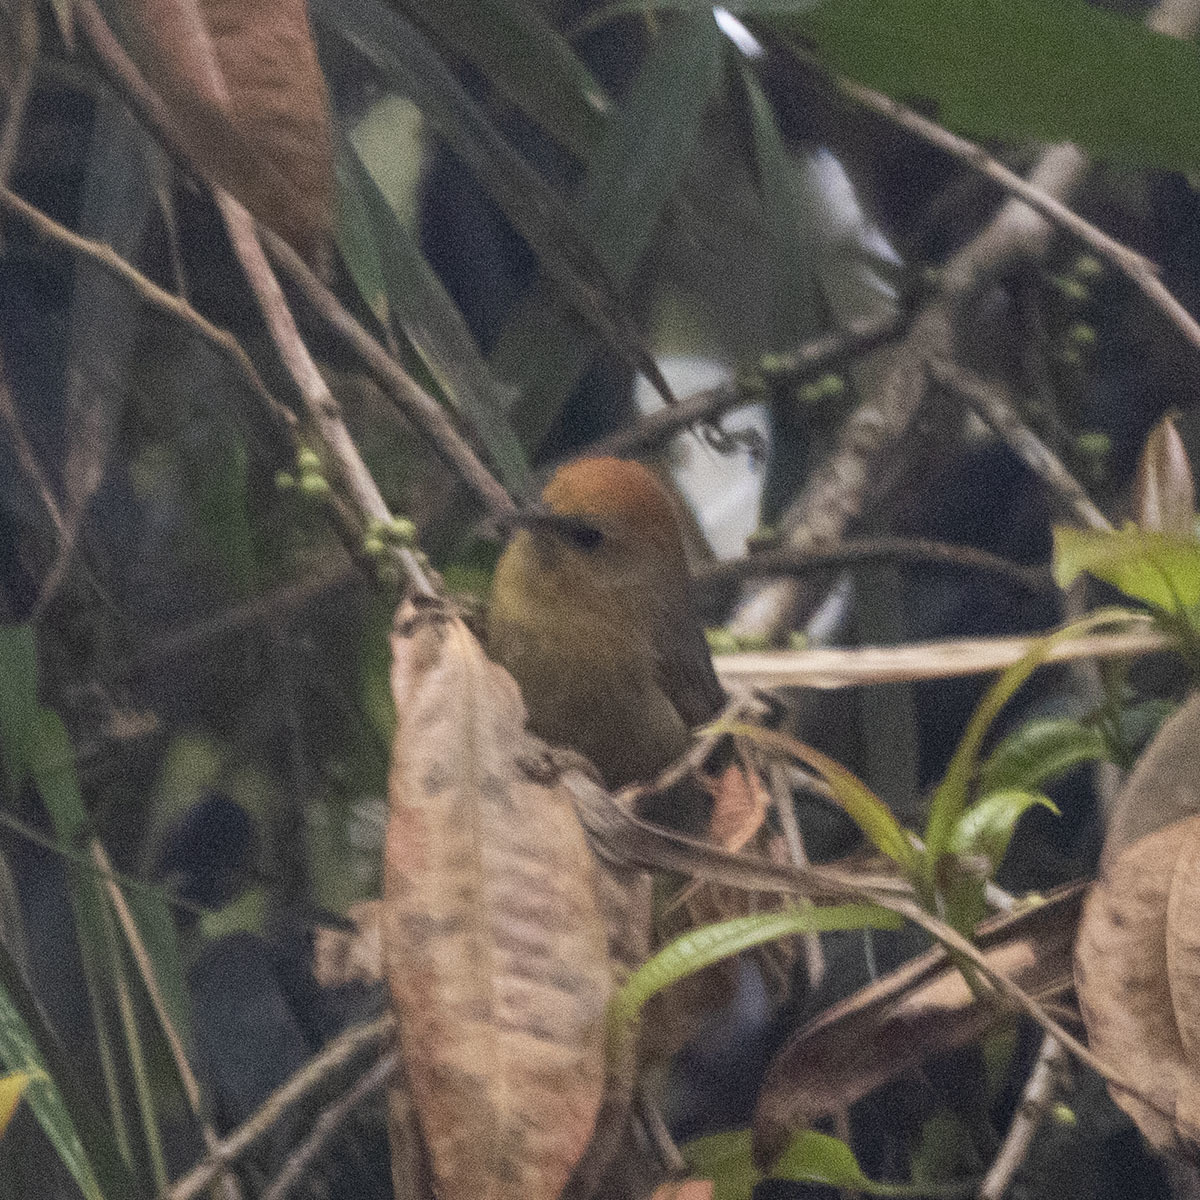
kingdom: Animalia
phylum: Chordata
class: Aves
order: Passeriformes
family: Timaliidae
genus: Stachyridopsis
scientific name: Stachyridopsis ruficeps
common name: Rufous-capped babbler
